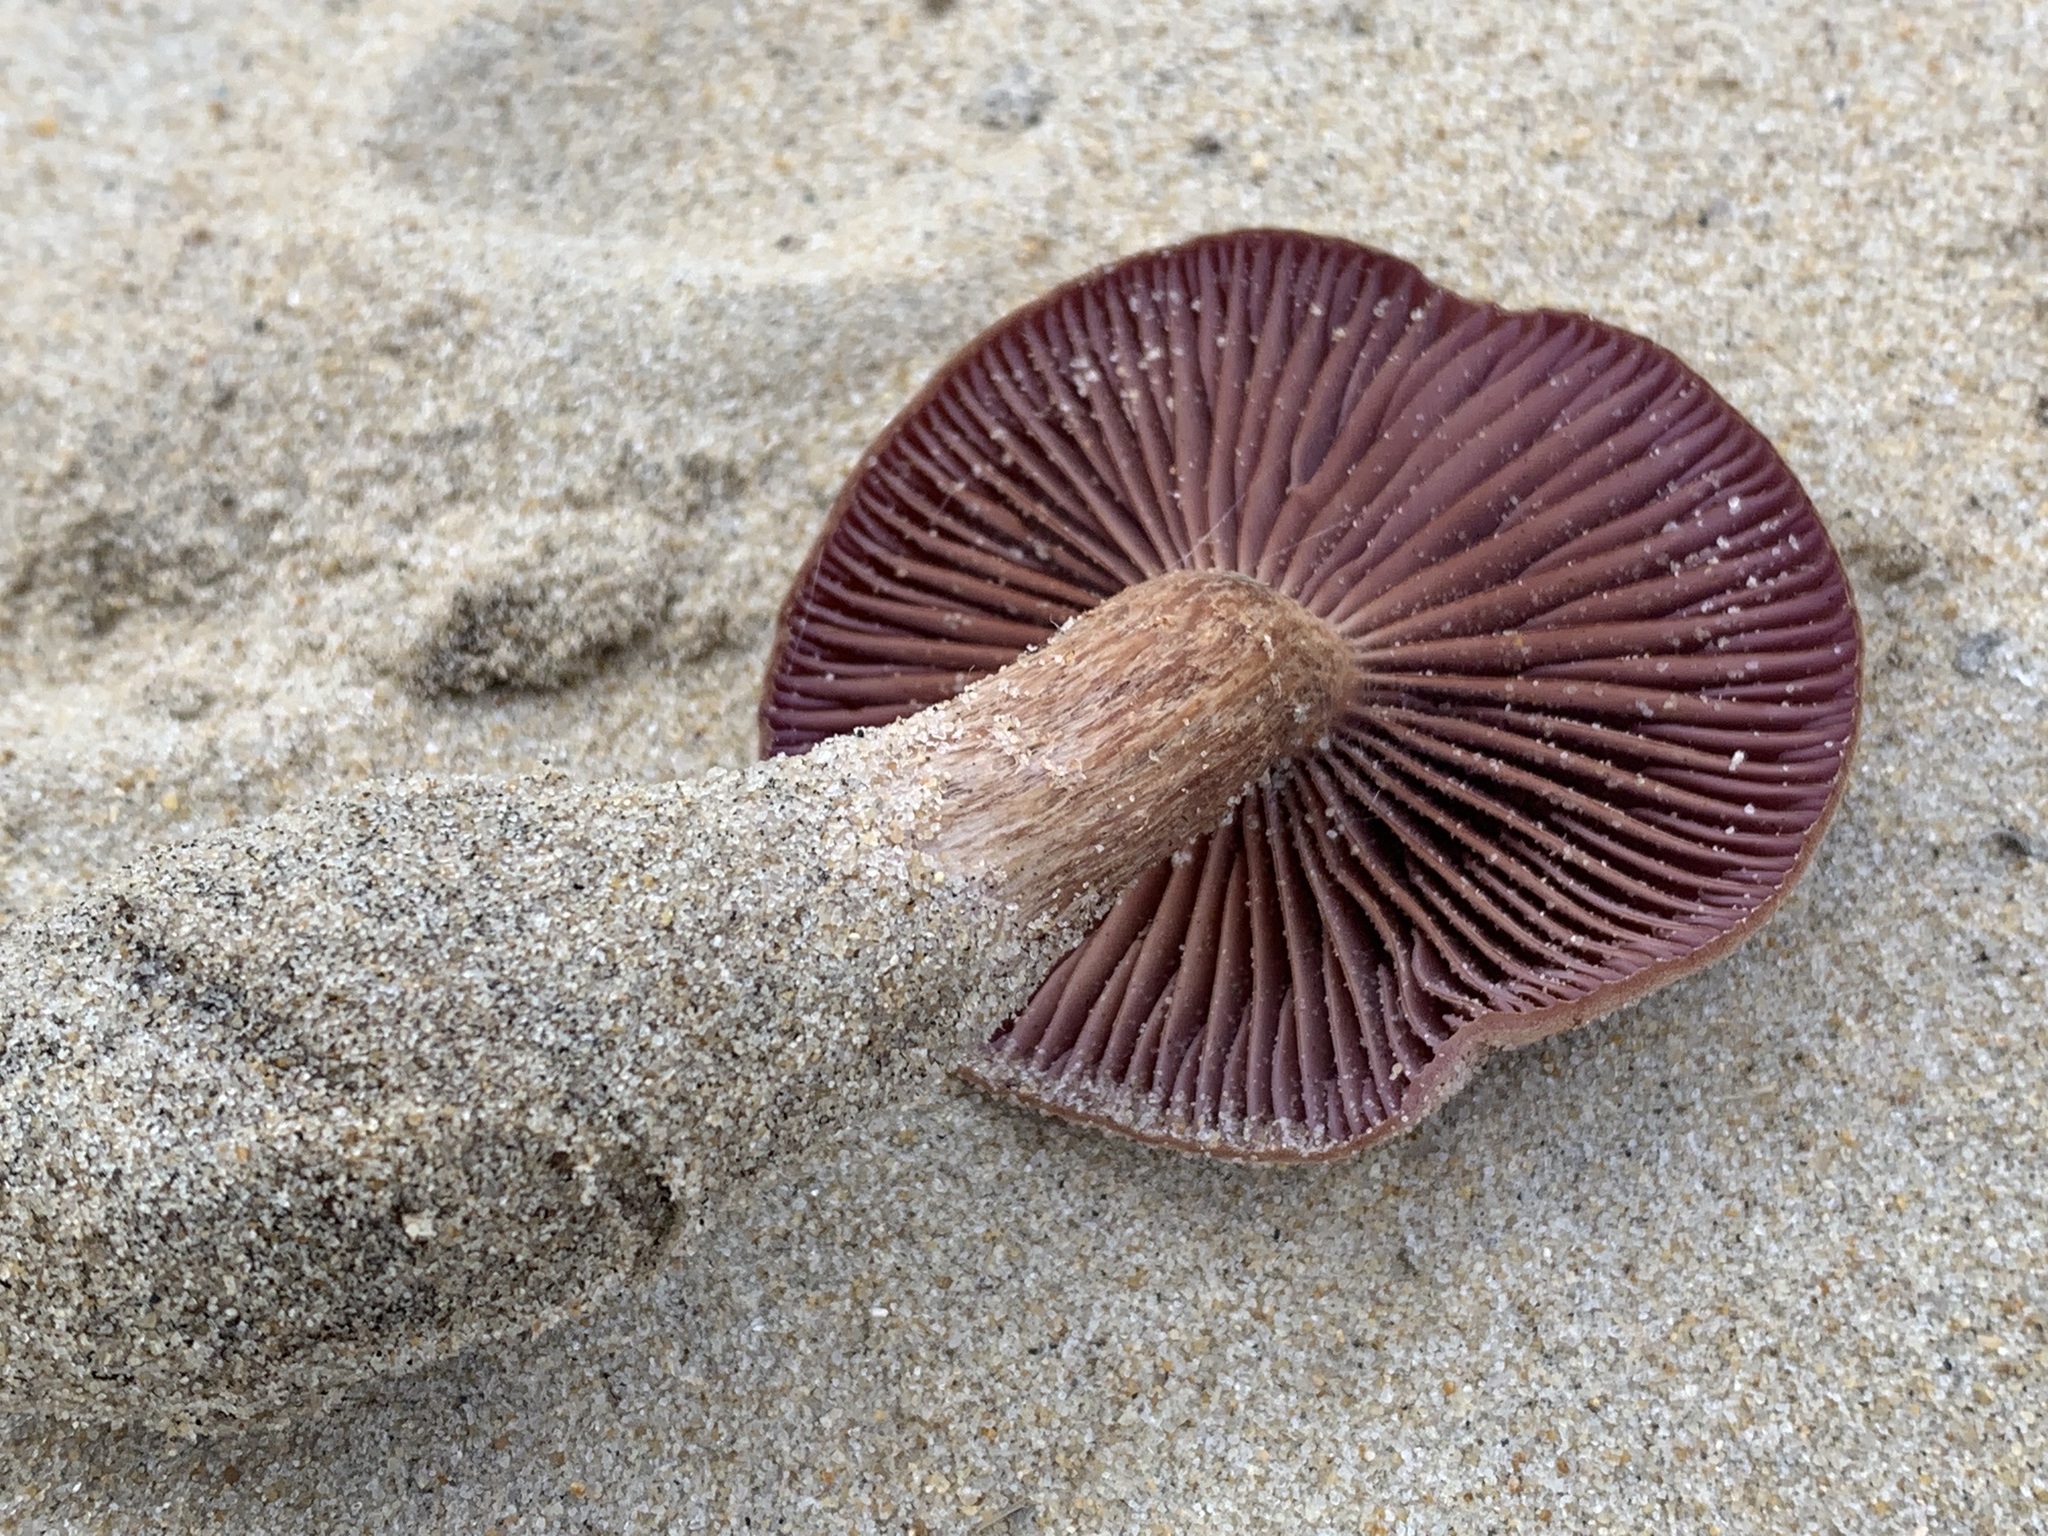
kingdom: Fungi
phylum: Basidiomycota
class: Agaricomycetes
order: Agaricales
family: Hydnangiaceae
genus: Laccaria
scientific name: Laccaria trullissata
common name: Sandy laccaria
